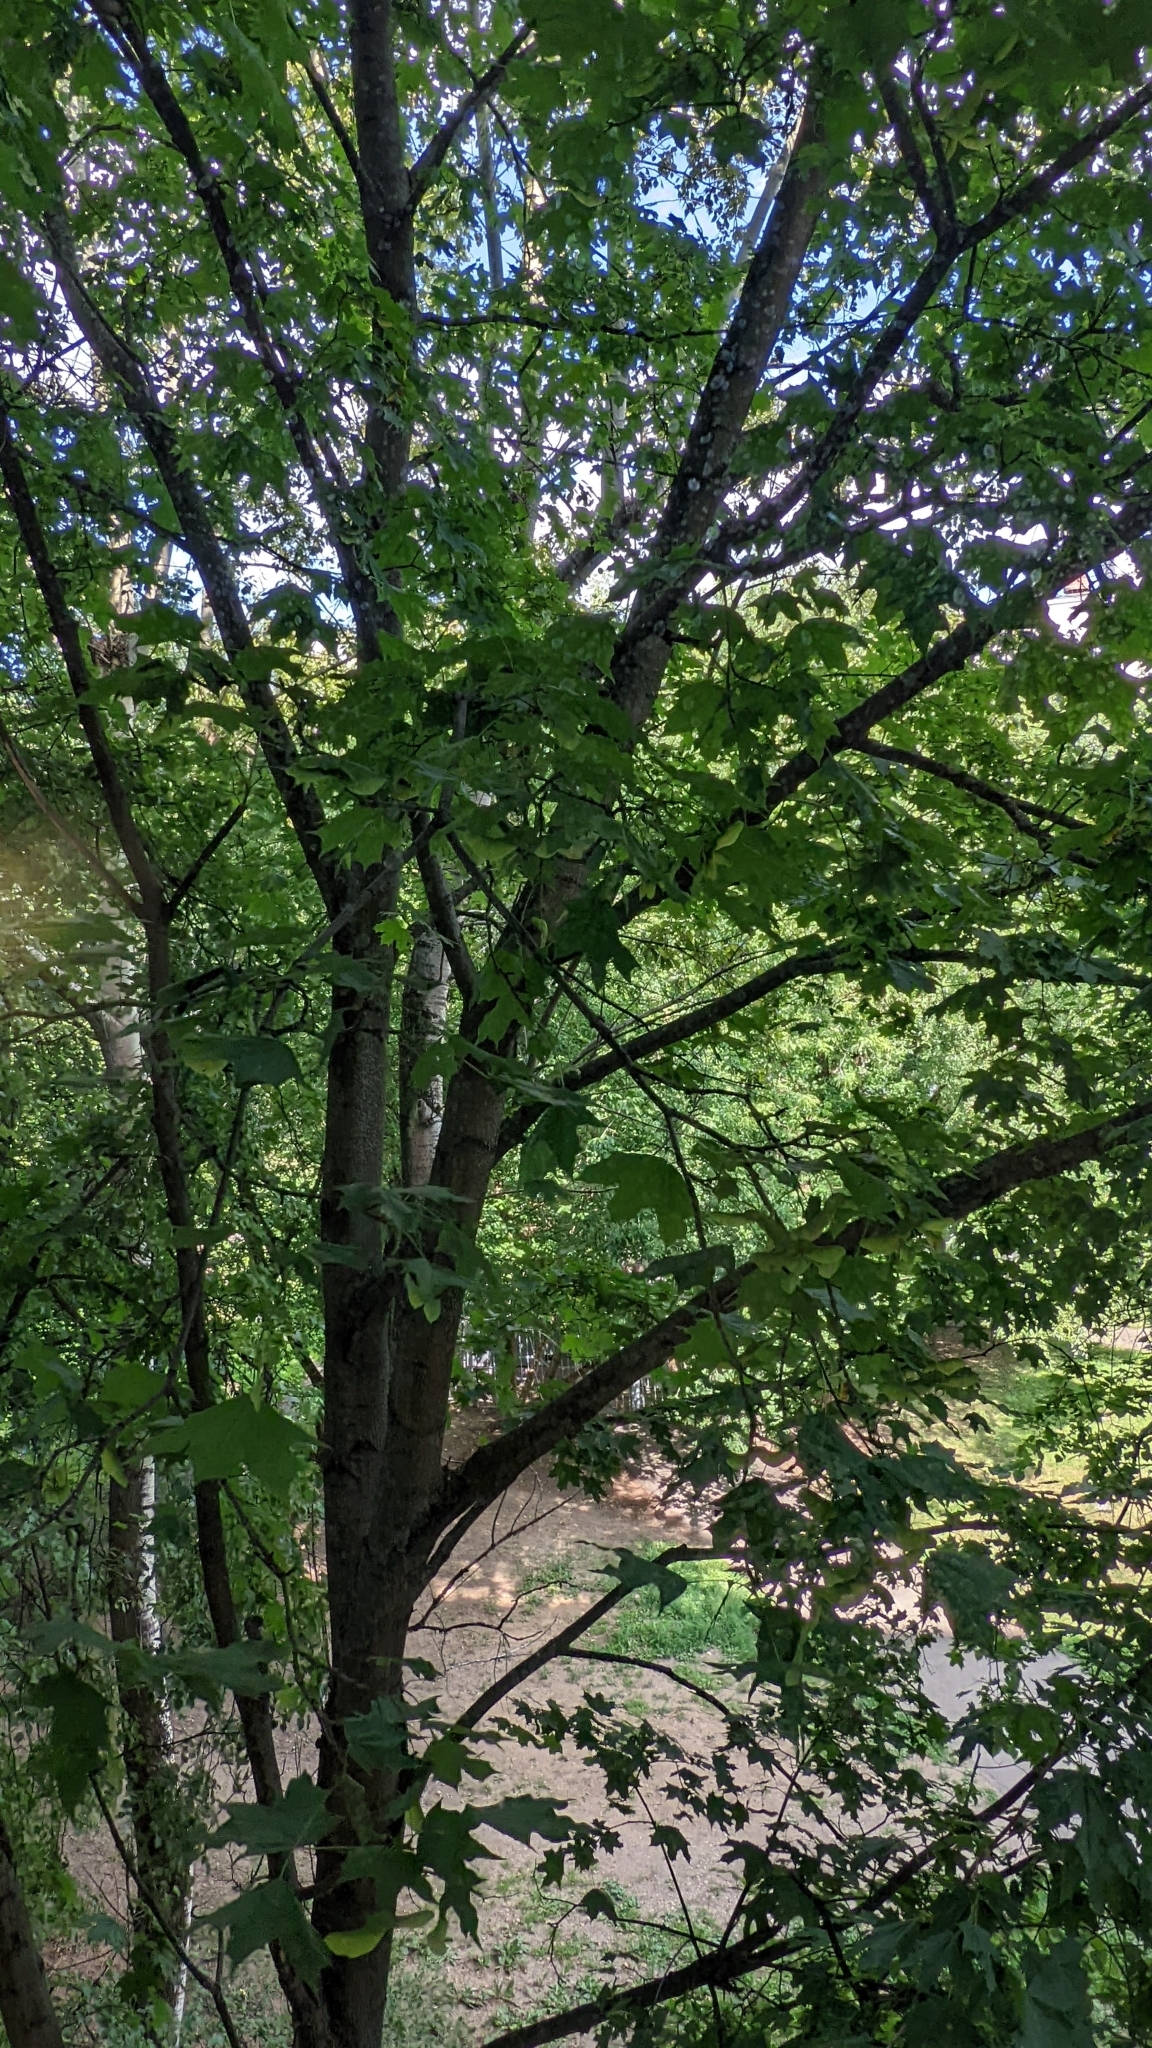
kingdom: Plantae
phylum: Tracheophyta
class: Magnoliopsida
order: Sapindales
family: Sapindaceae
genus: Acer
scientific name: Acer platanoides
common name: Norway maple
